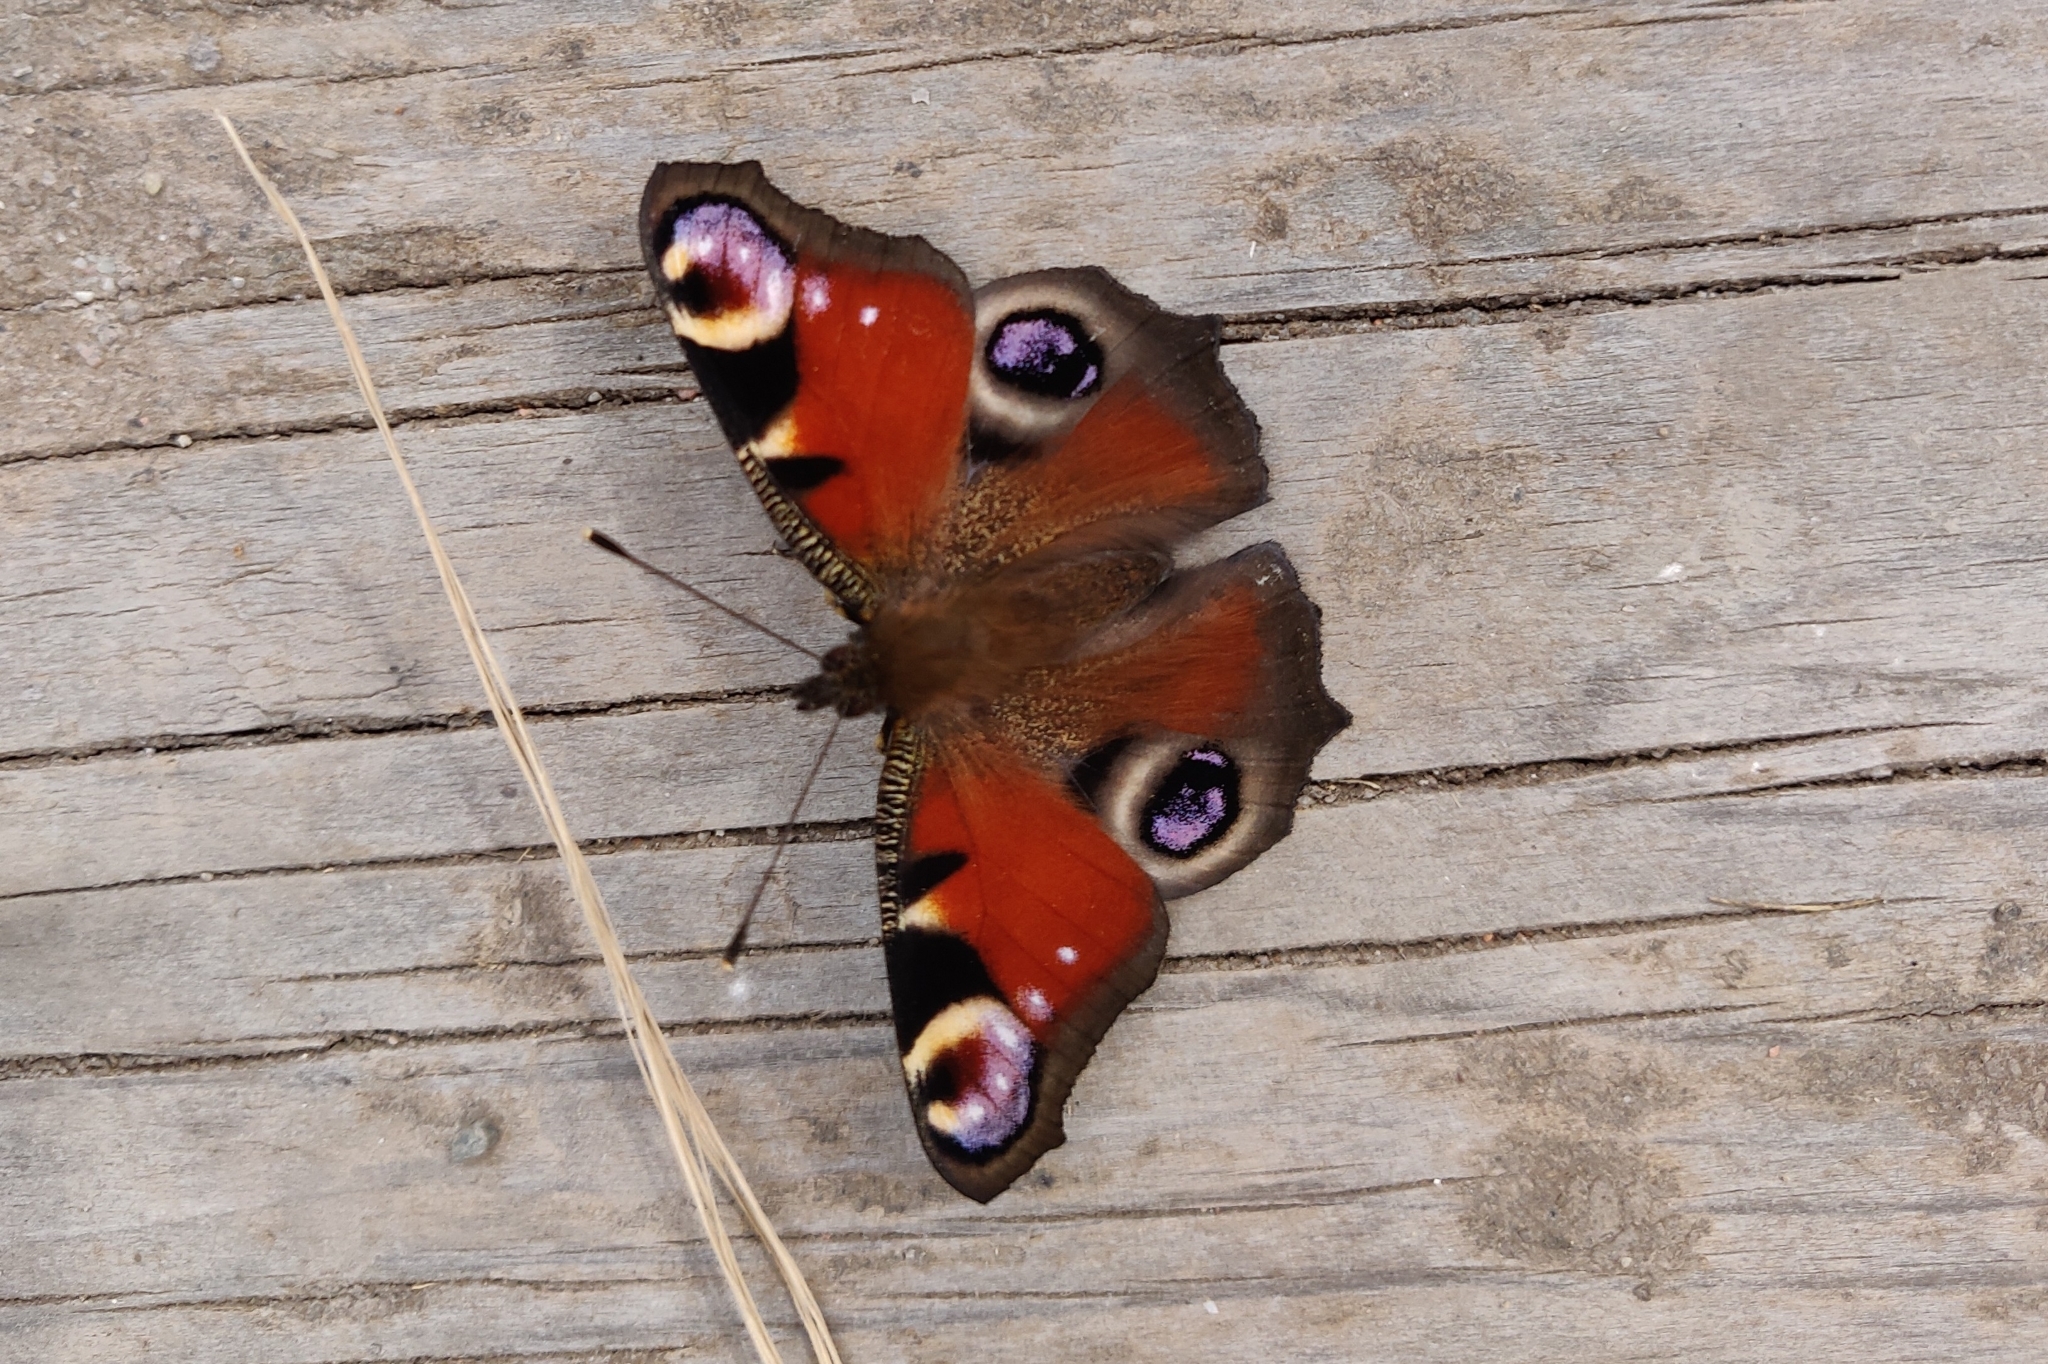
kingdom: Animalia
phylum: Arthropoda
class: Insecta
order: Lepidoptera
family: Nymphalidae
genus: Aglais
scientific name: Aglais io
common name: Peacock
